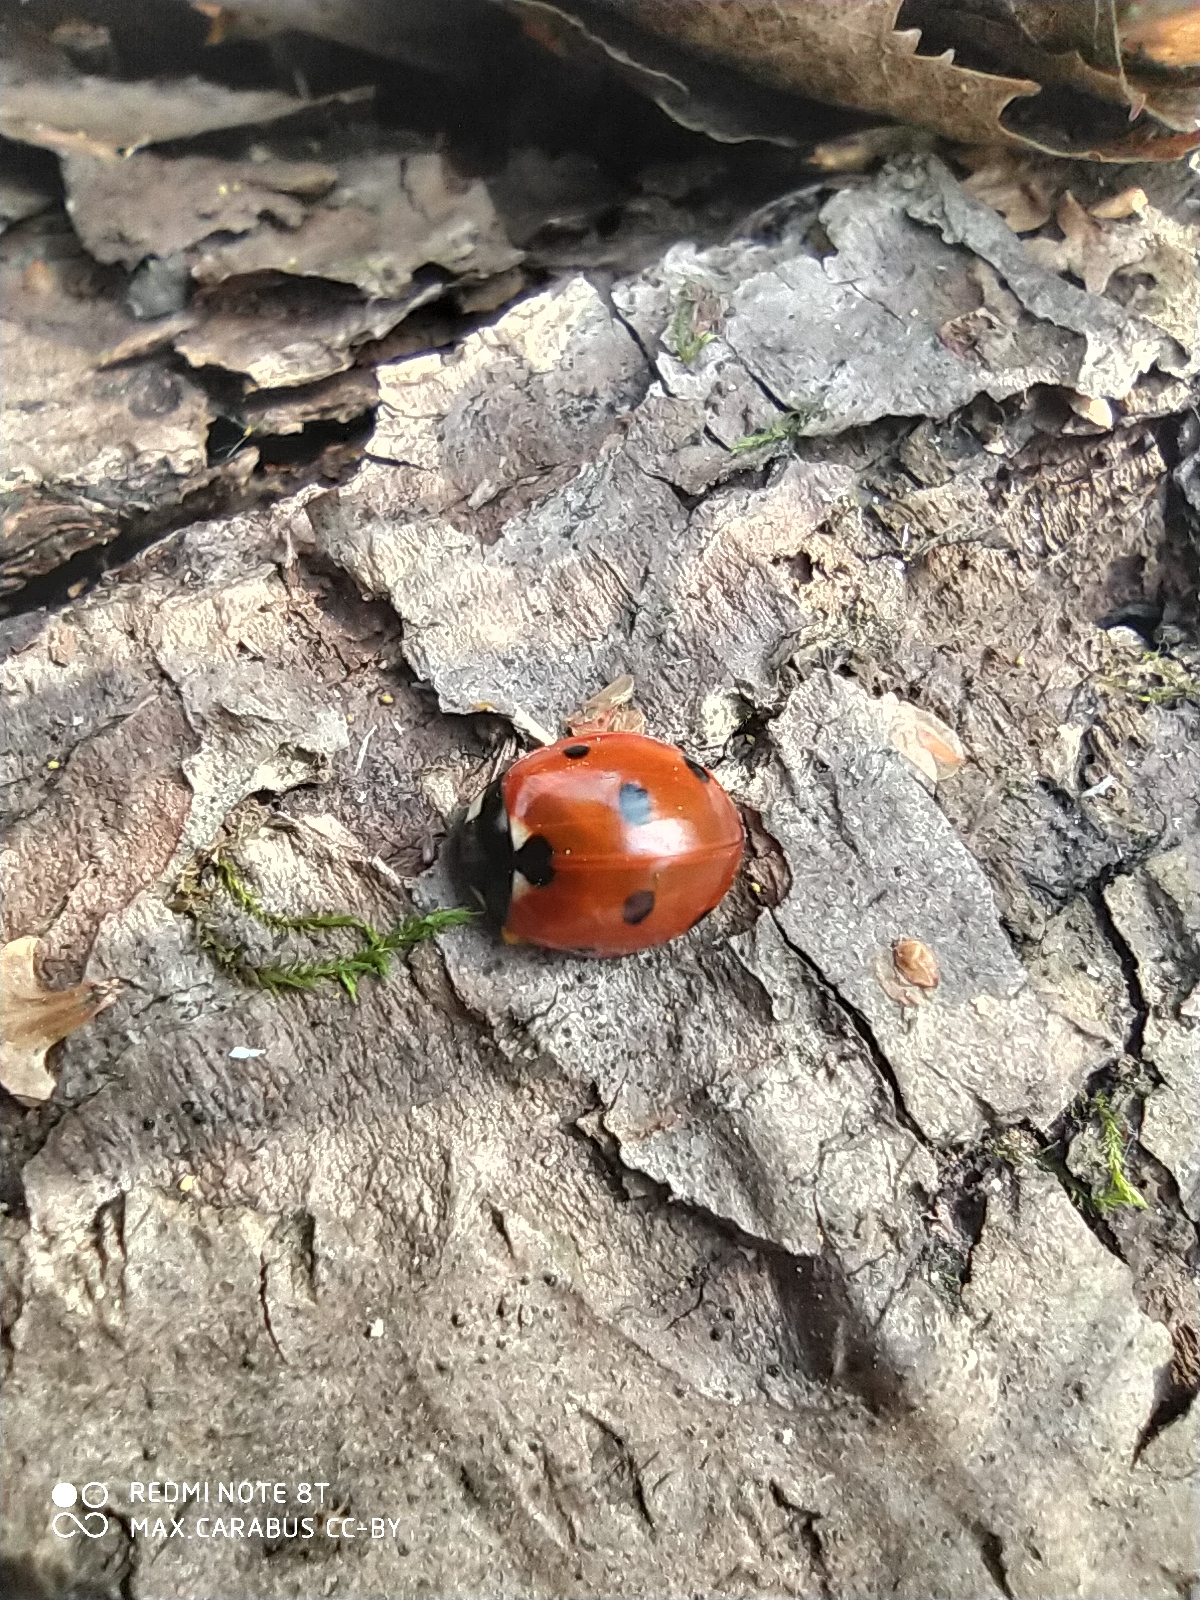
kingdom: Animalia
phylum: Arthropoda
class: Insecta
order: Coleoptera
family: Coccinellidae
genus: Coccinella
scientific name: Coccinella septempunctata
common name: Sevenspotted lady beetle
